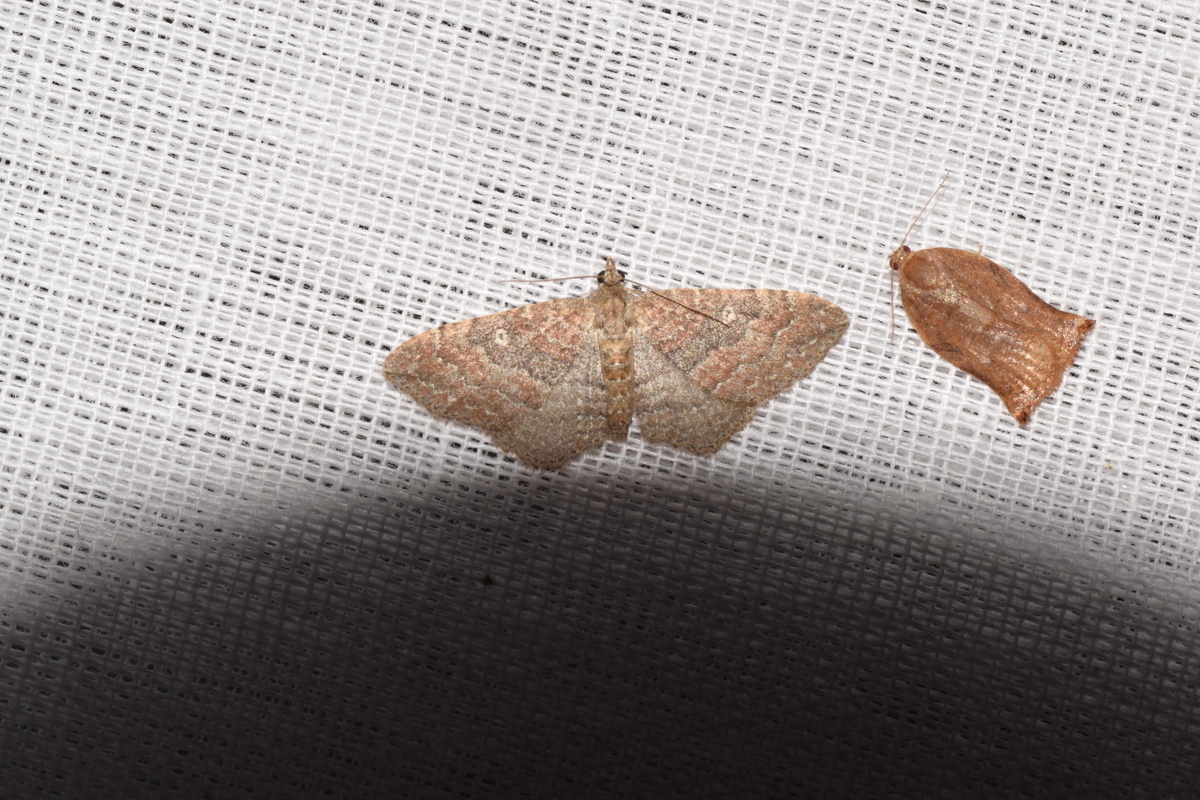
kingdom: Animalia
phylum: Arthropoda
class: Insecta
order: Lepidoptera
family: Geometridae
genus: Orthonama
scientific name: Orthonama obstipata
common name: The gem
